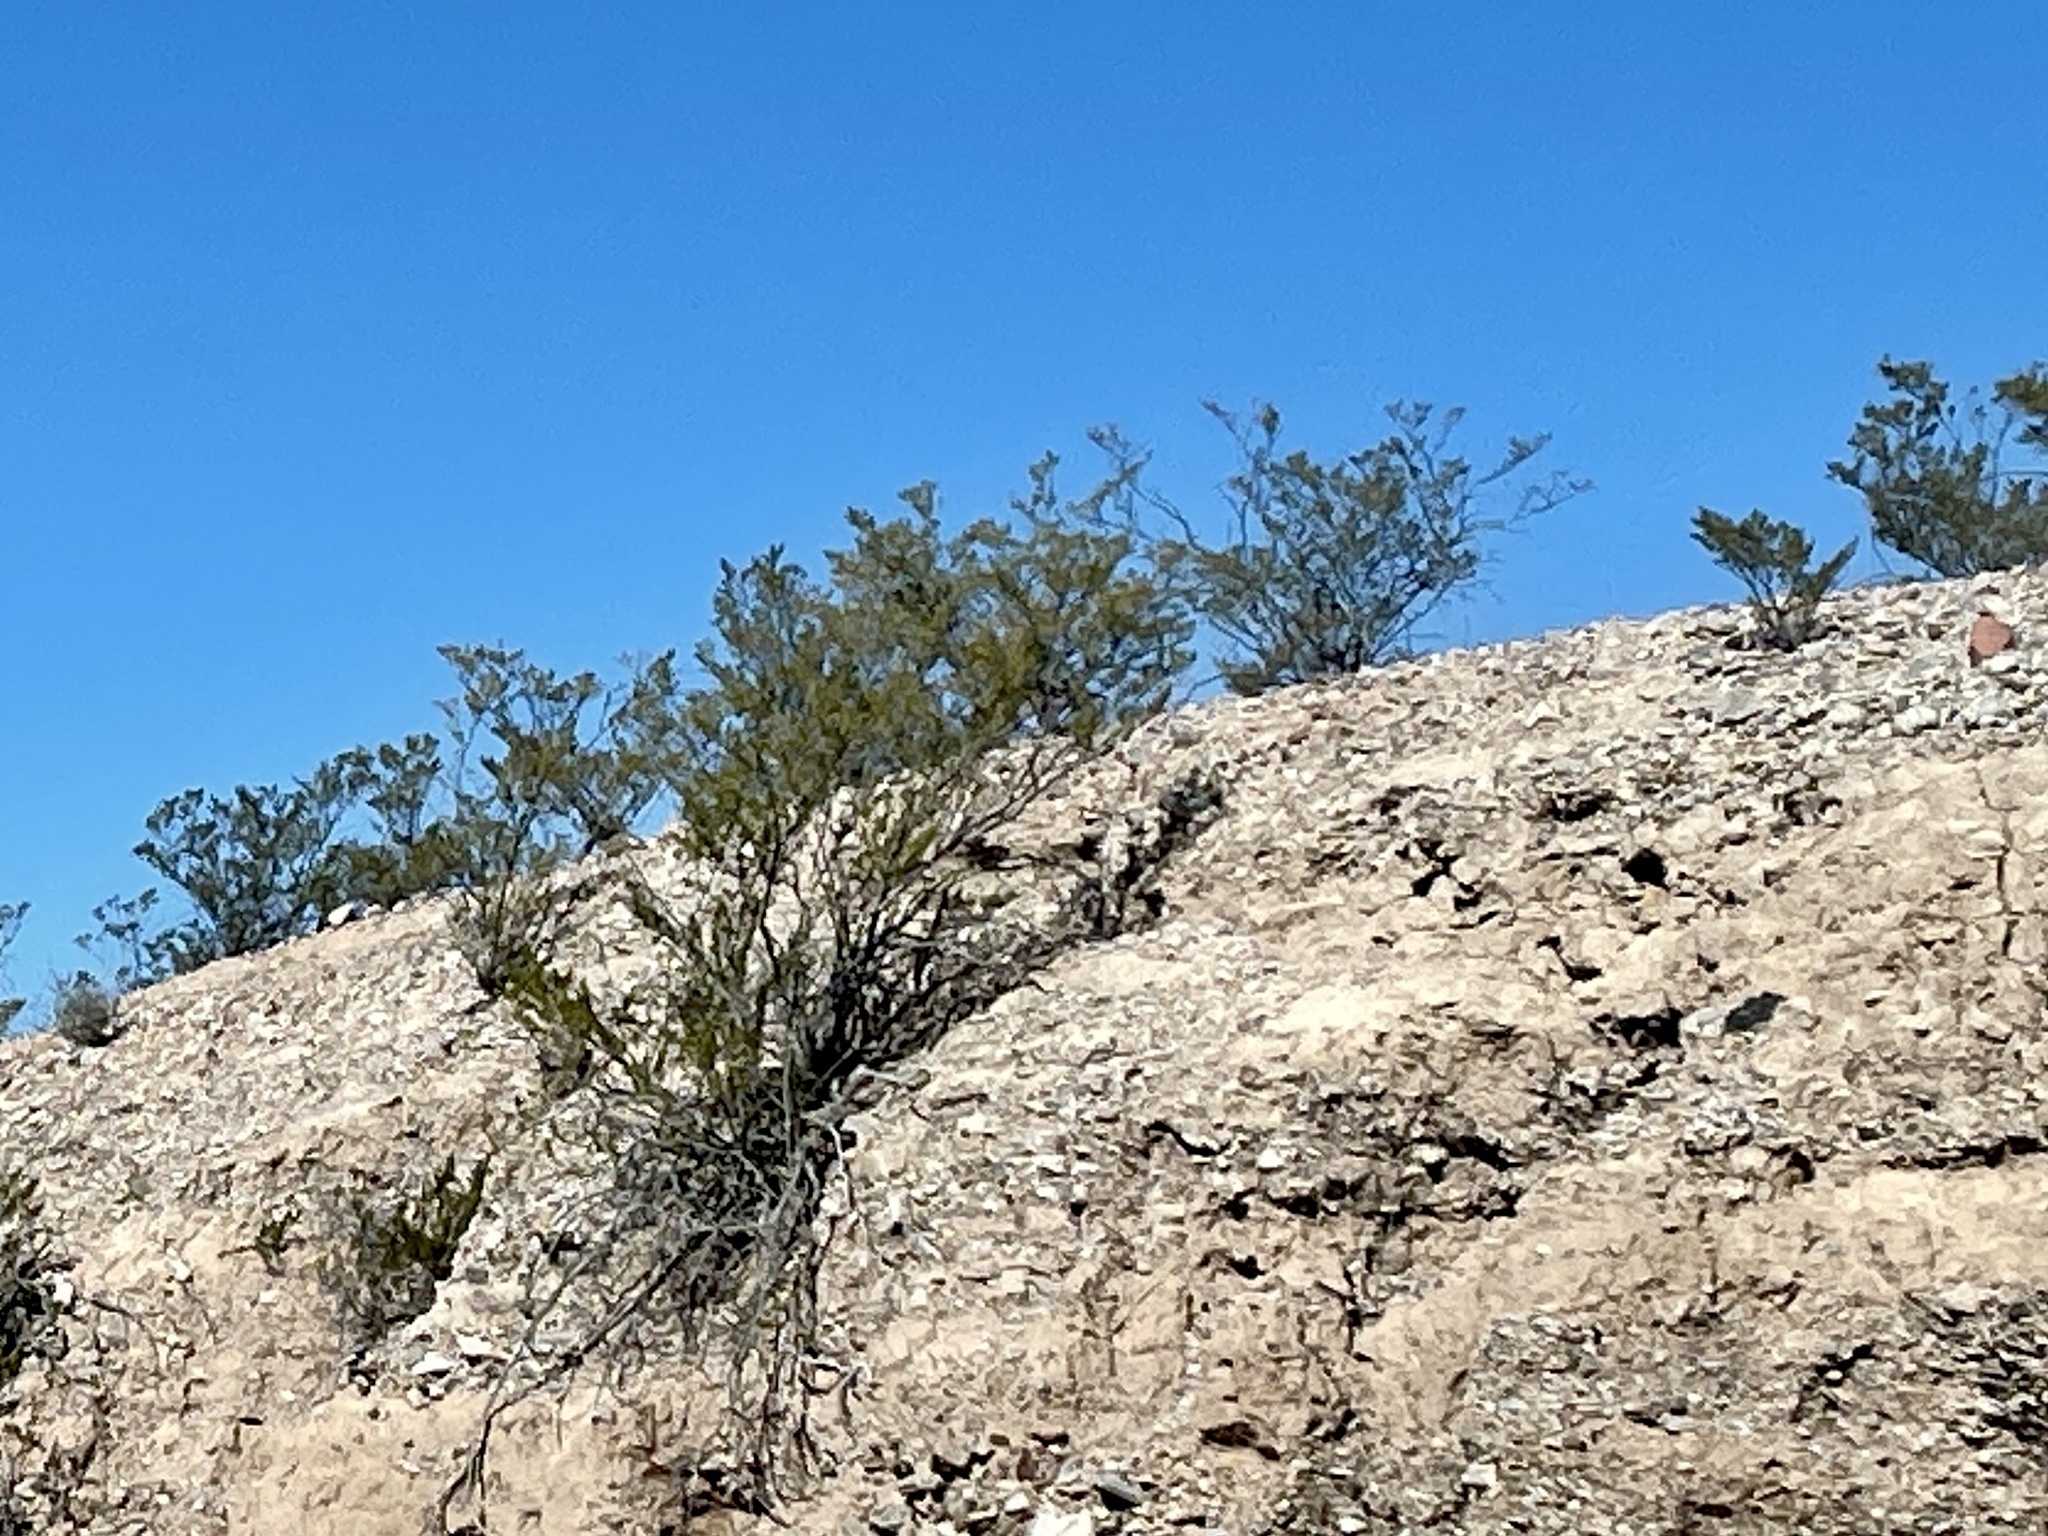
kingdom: Plantae
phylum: Tracheophyta
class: Magnoliopsida
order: Zygophyllales
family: Zygophyllaceae
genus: Larrea
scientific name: Larrea tridentata
